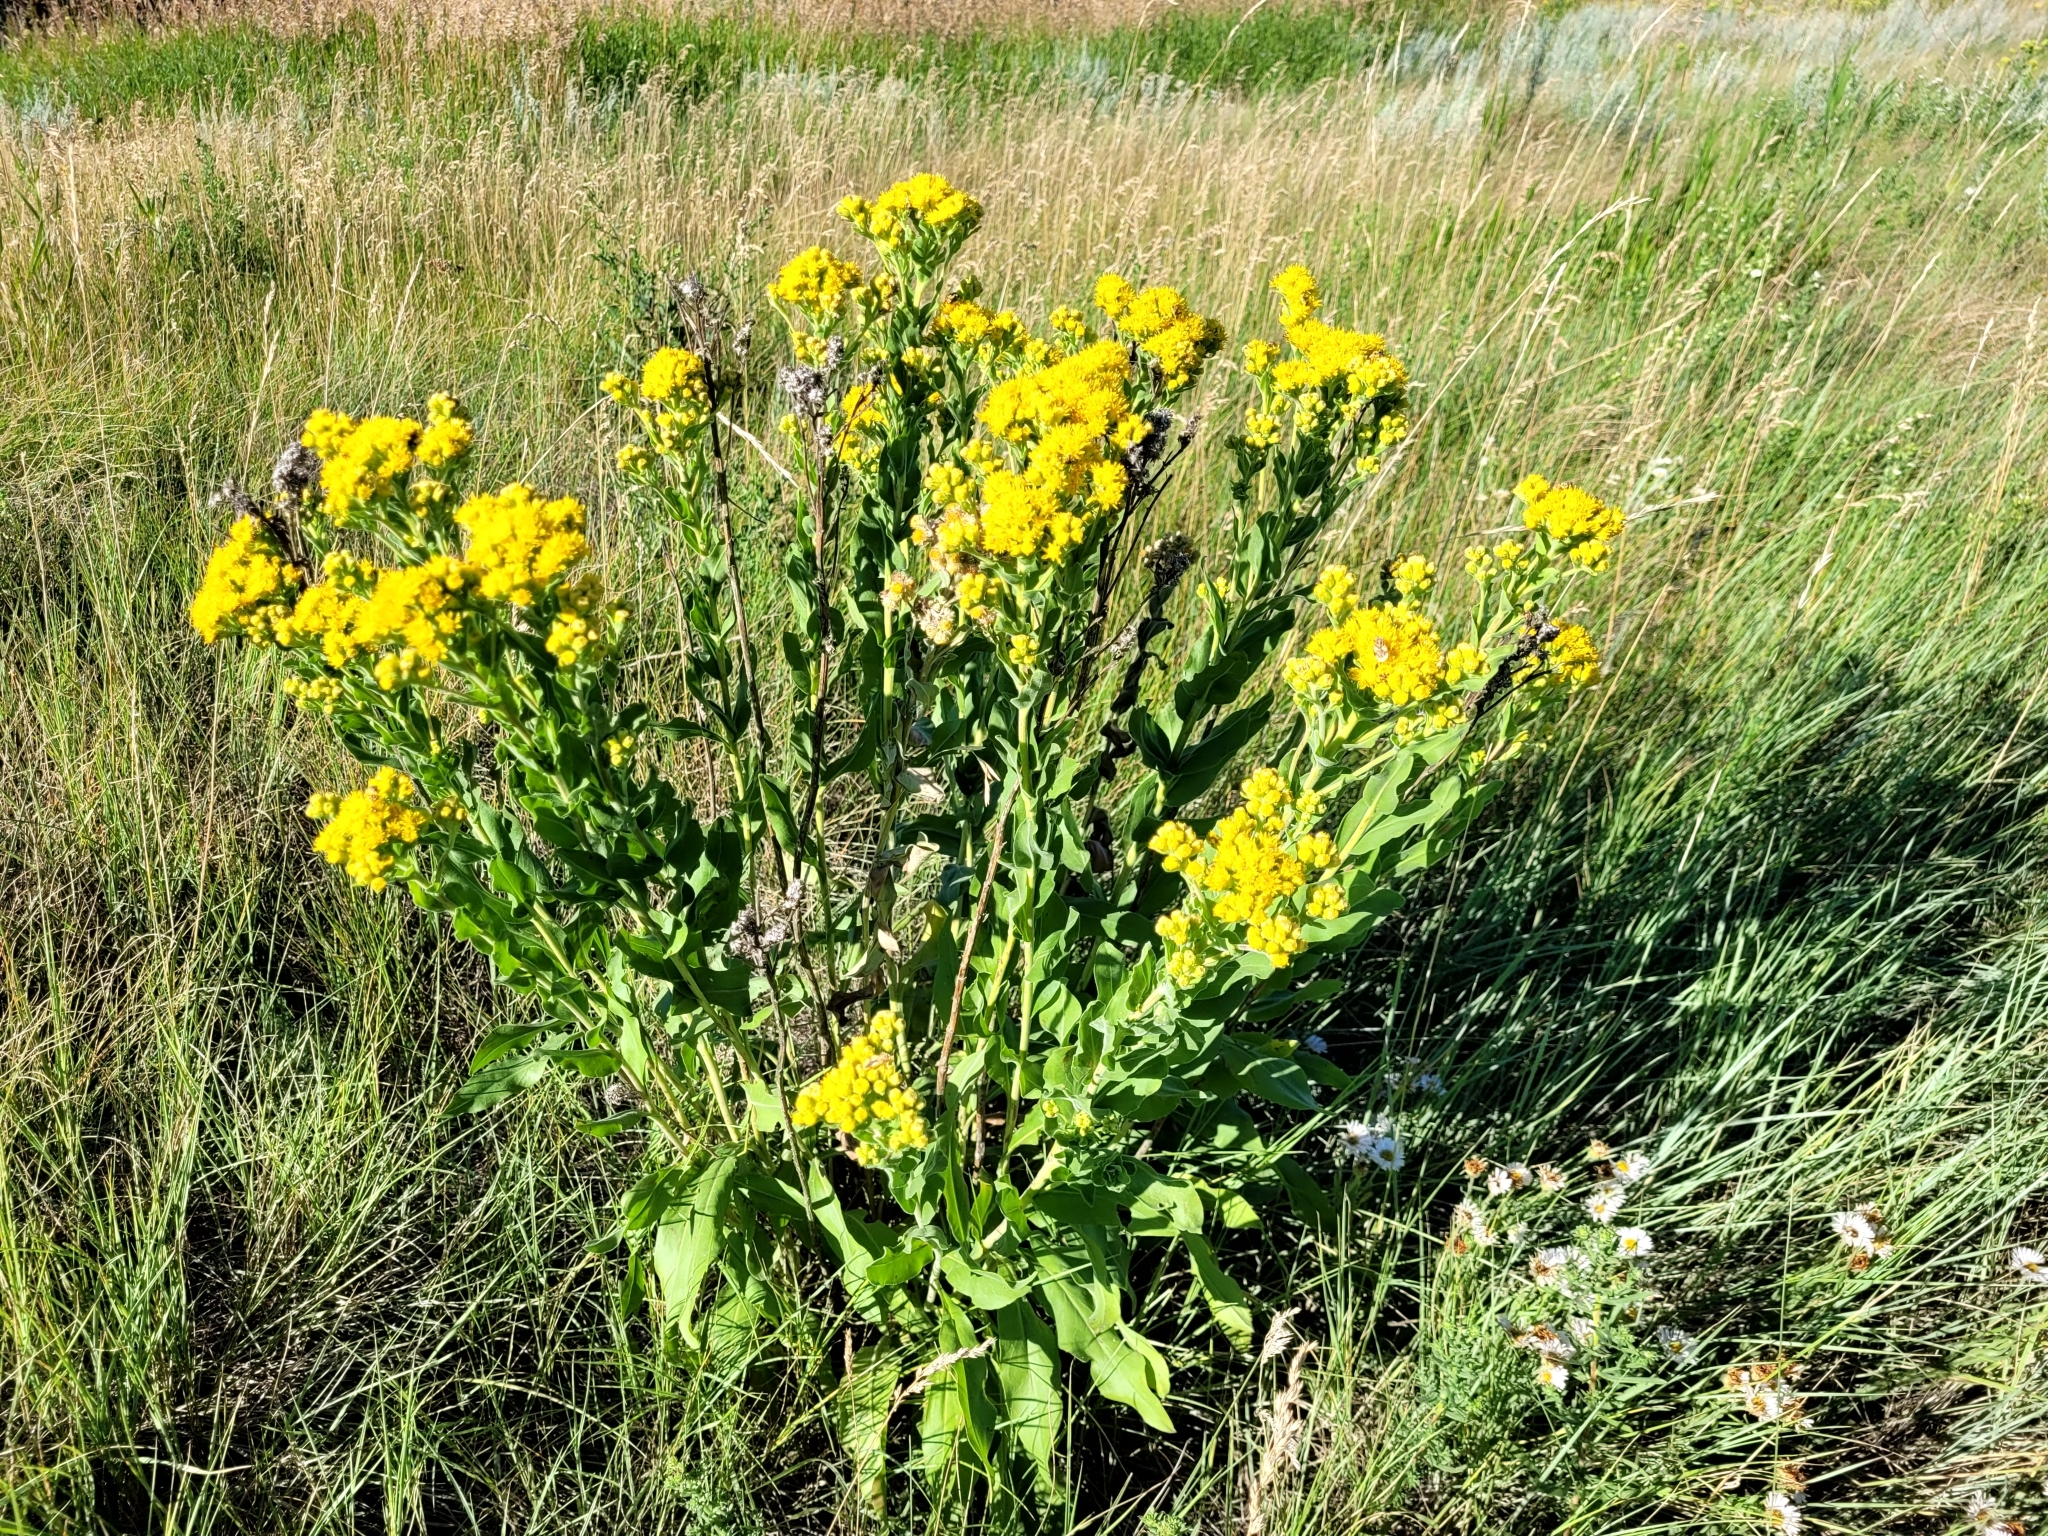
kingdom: Plantae
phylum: Tracheophyta
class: Magnoliopsida
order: Asterales
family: Asteraceae
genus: Solidago
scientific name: Solidago rigida
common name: Rigid goldenrod
